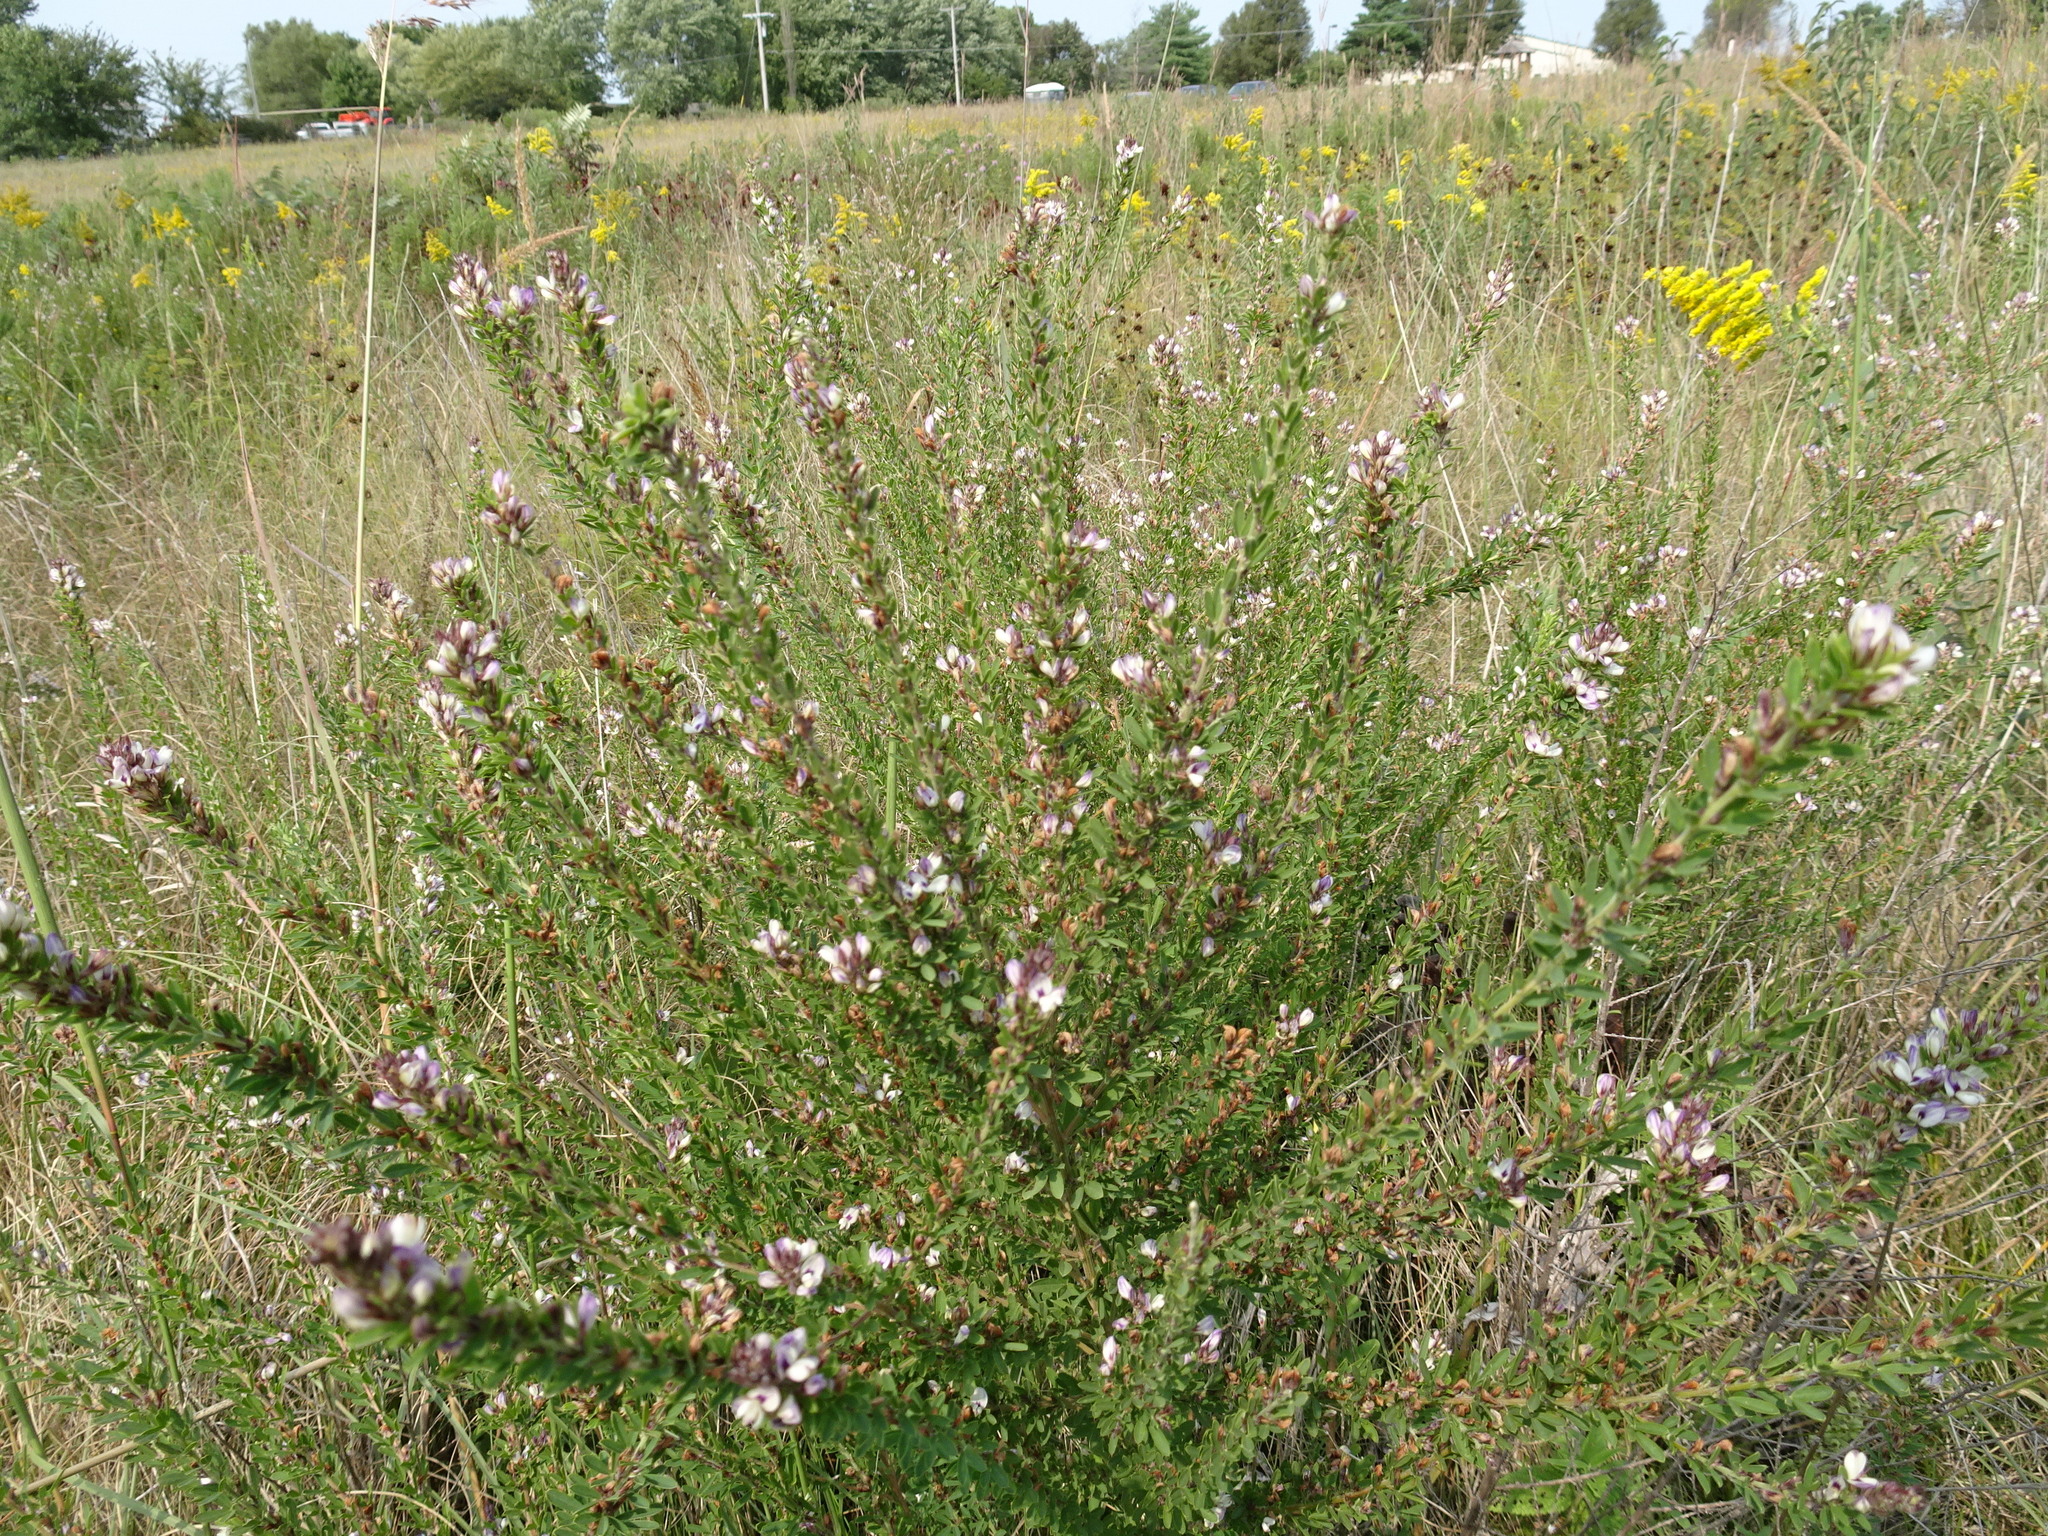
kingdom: Plantae
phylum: Tracheophyta
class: Magnoliopsida
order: Fabales
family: Fabaceae
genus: Lespedeza
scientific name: Lespedeza cuneata
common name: Chinese bush-clover
